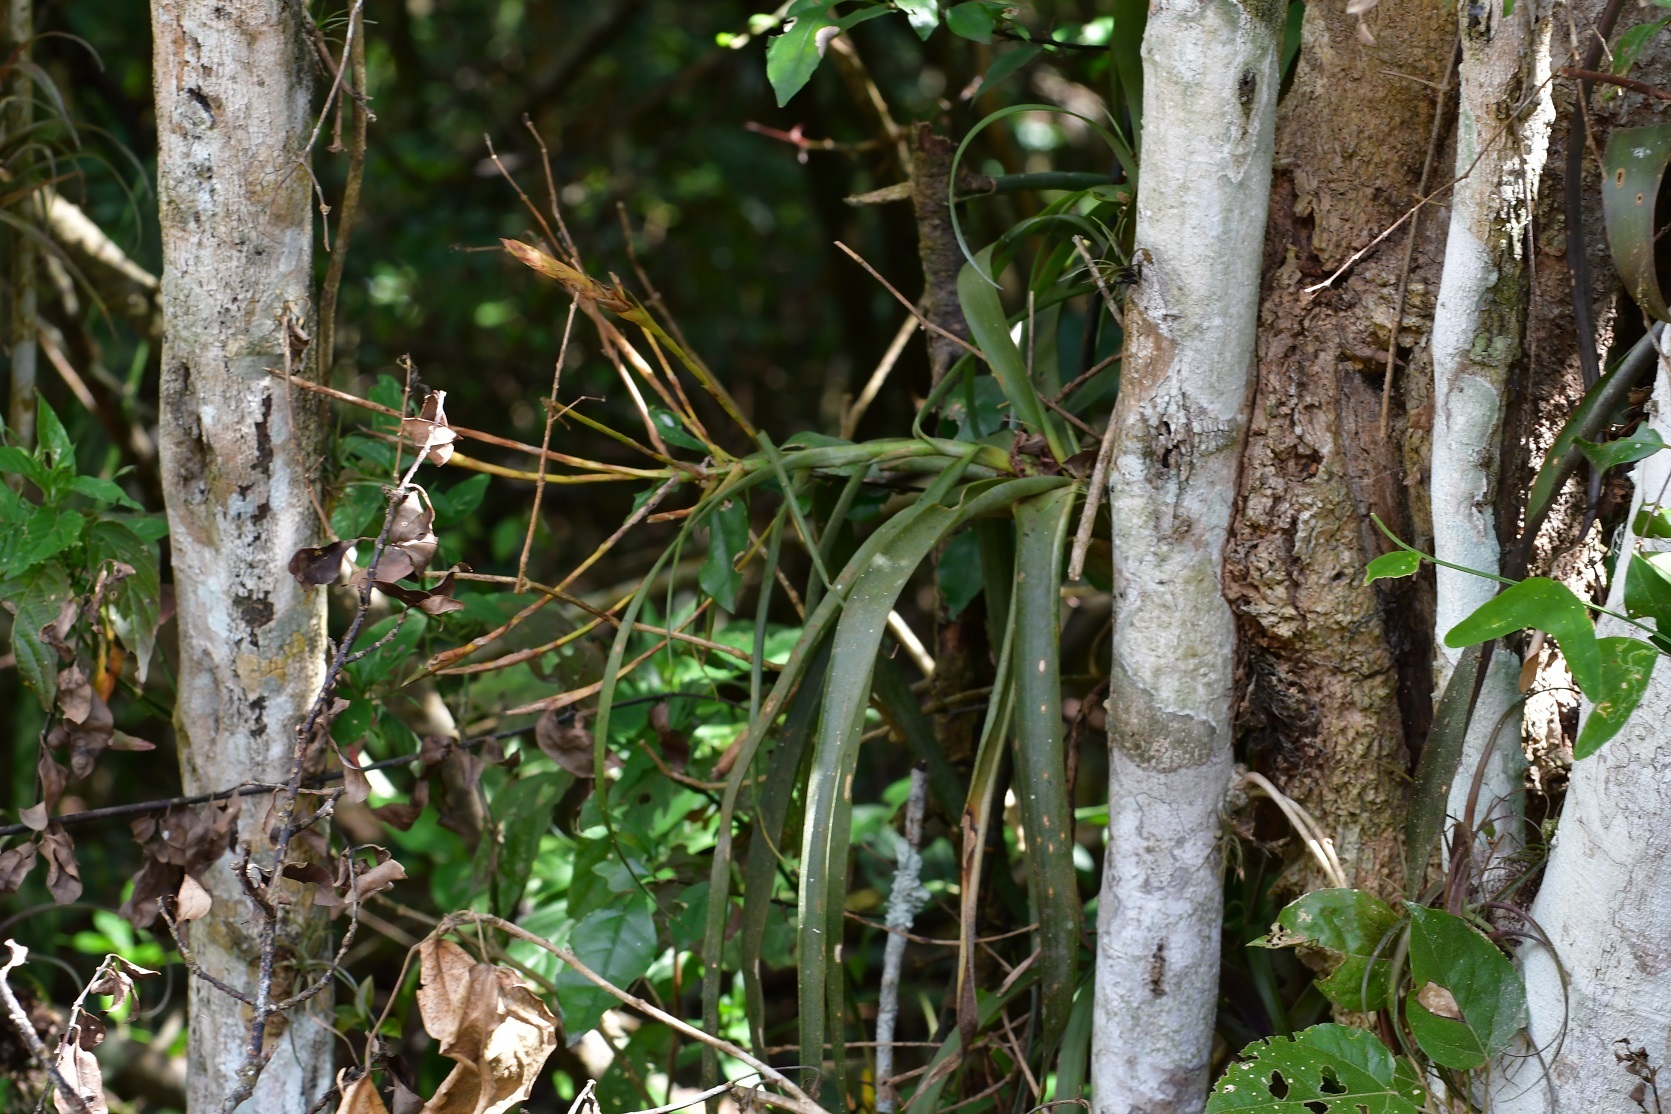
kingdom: Plantae
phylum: Tracheophyta
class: Liliopsida
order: Poales
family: Bromeliaceae
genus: Tillandsia
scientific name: Tillandsia flabellata
